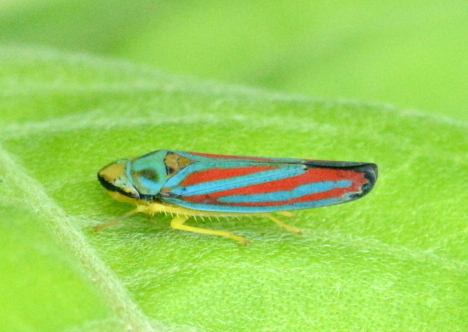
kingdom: Animalia
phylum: Arthropoda
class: Insecta
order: Hemiptera
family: Cicadellidae
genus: Graphocephala
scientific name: Graphocephala coccinea
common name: Candy-striped leafhopper
